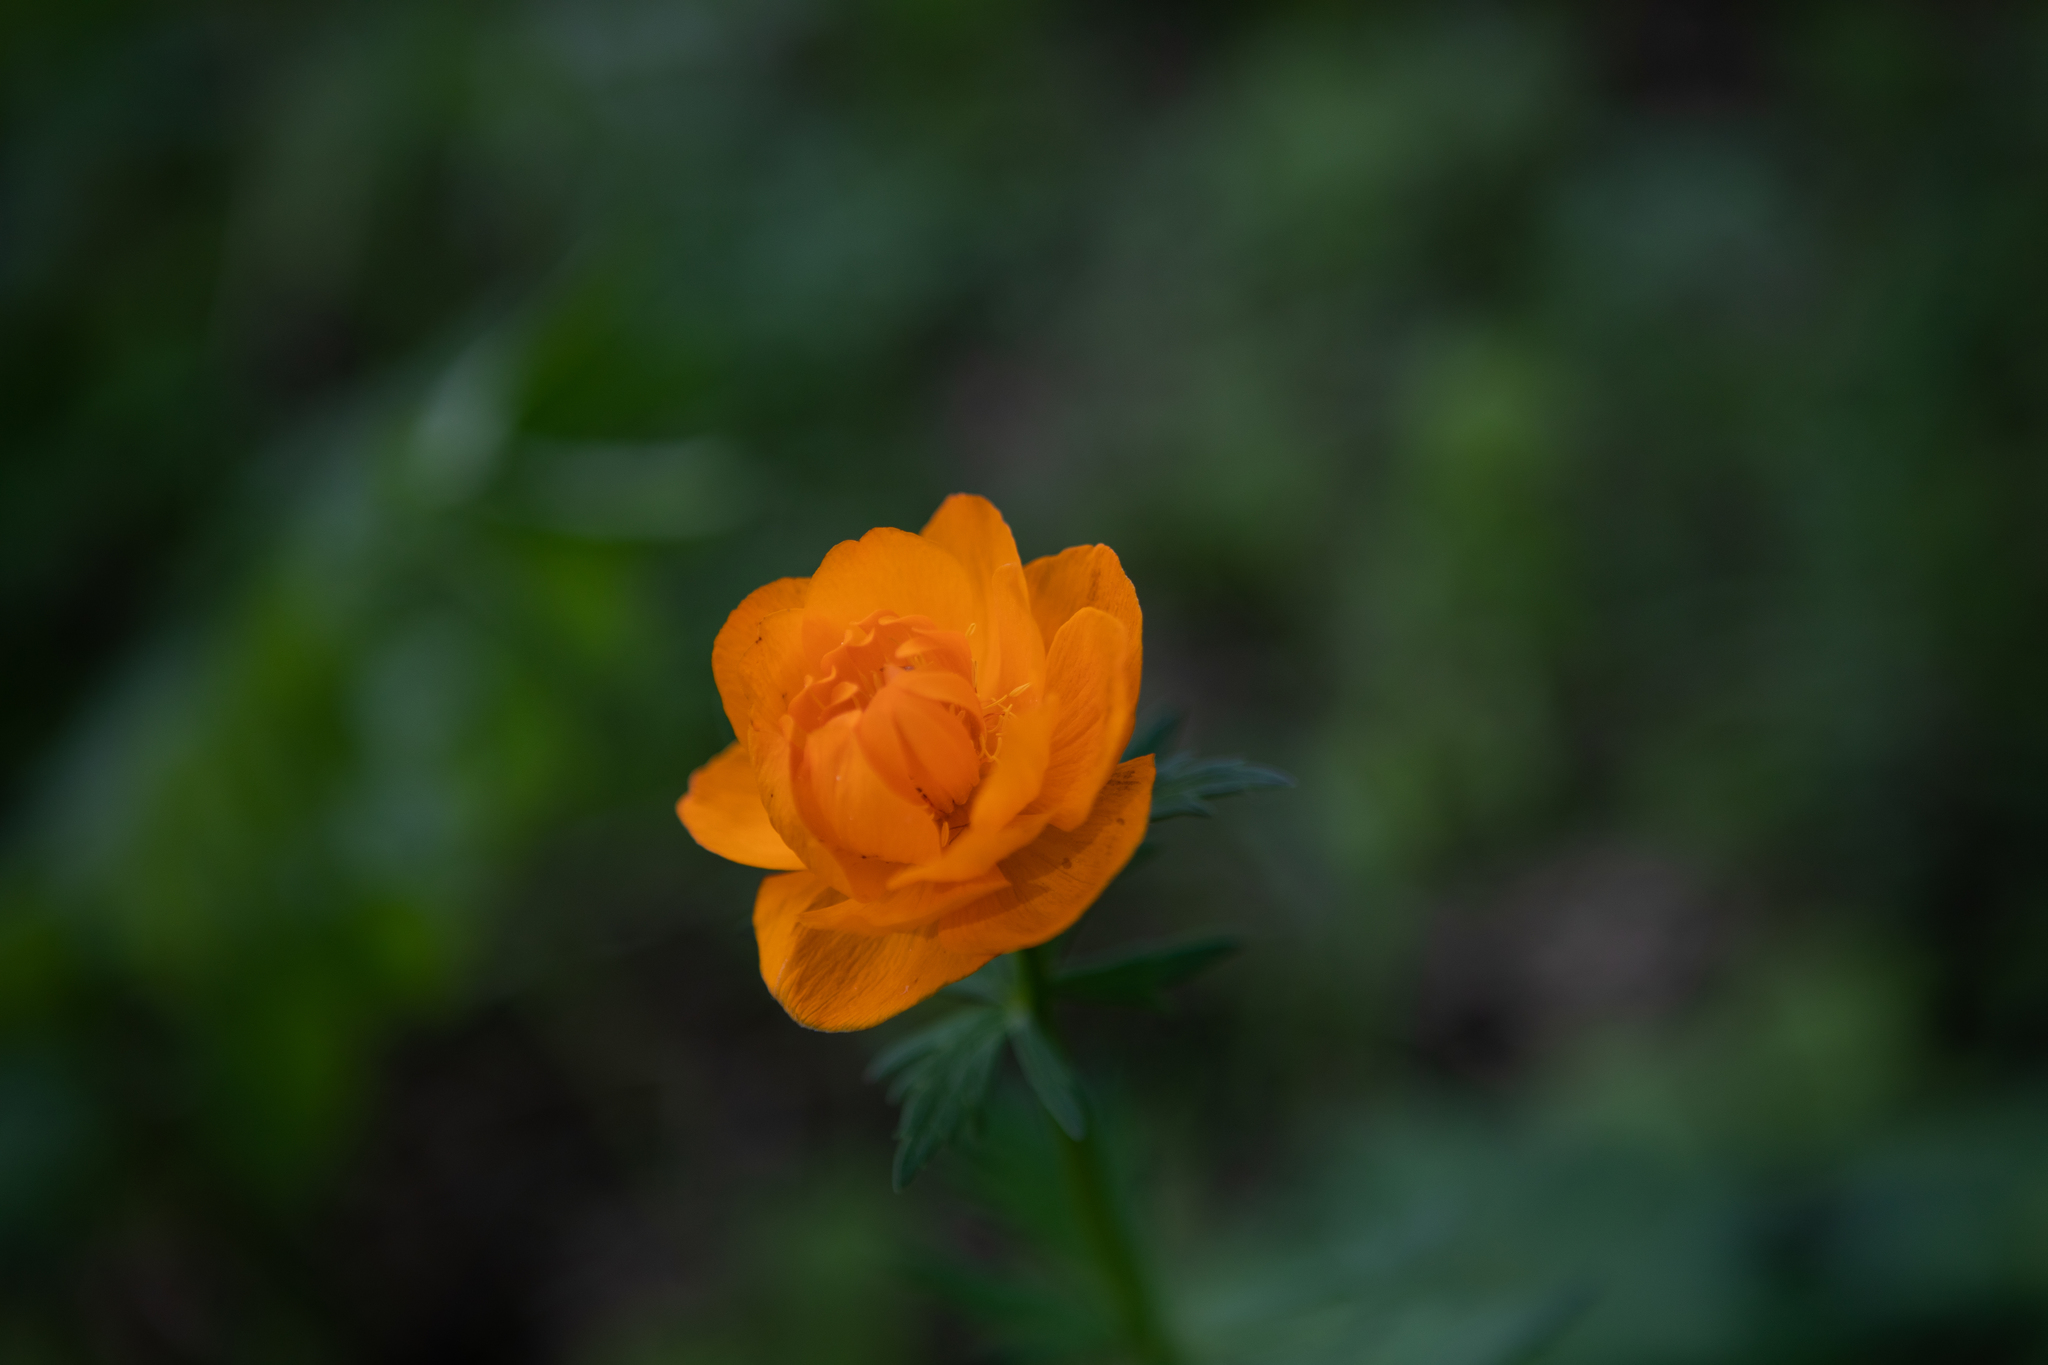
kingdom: Plantae
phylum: Tracheophyta
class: Magnoliopsida
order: Ranunculales
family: Ranunculaceae
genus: Trollius
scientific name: Trollius asiaticus
